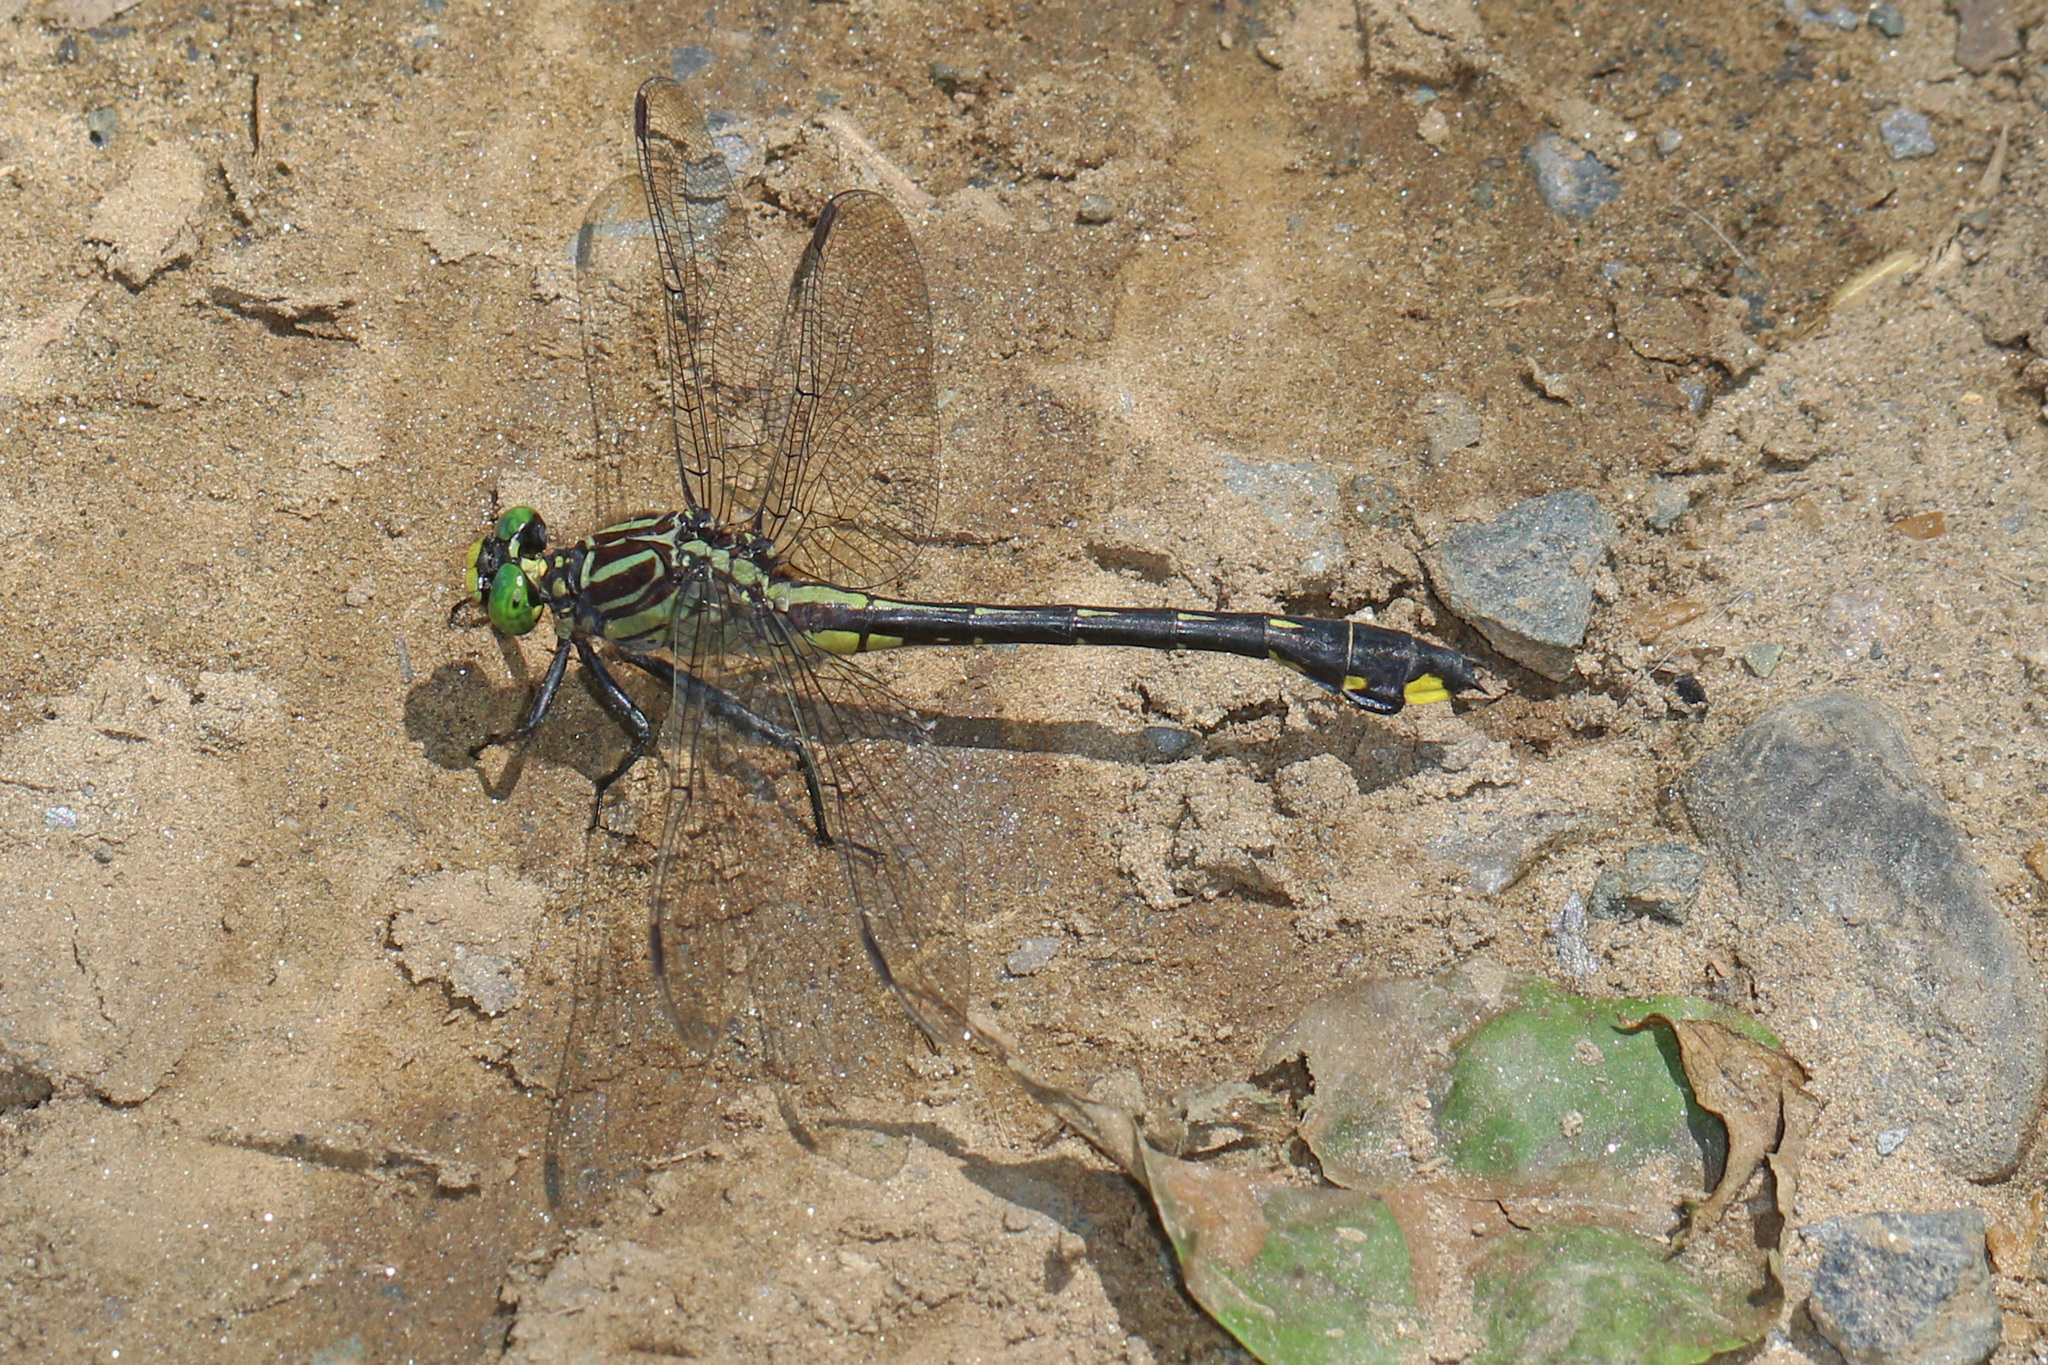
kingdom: Animalia
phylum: Arthropoda
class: Insecta
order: Odonata
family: Gomphidae
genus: Gomphurus
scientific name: Gomphurus vastus
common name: Cobra clubtail
